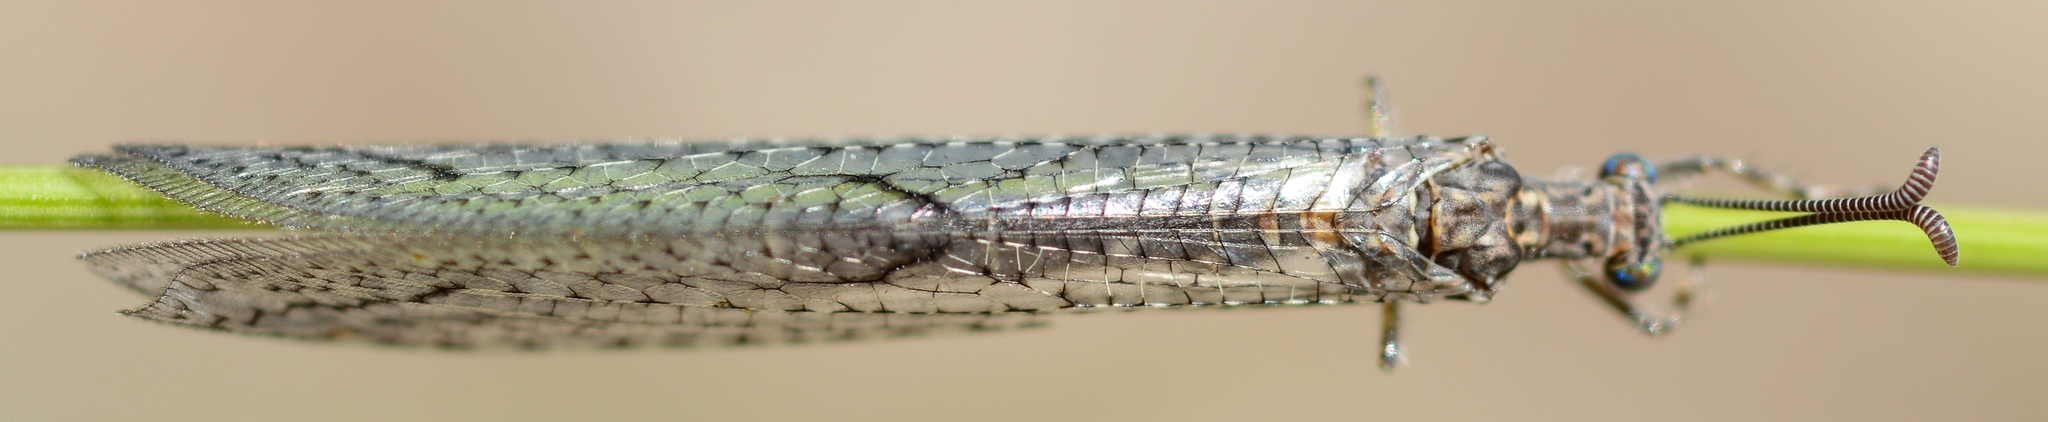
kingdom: Animalia
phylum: Arthropoda
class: Insecta
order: Neuroptera
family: Myrmeleontidae
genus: Neuroleon
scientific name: Neuroleon nemausiensis
